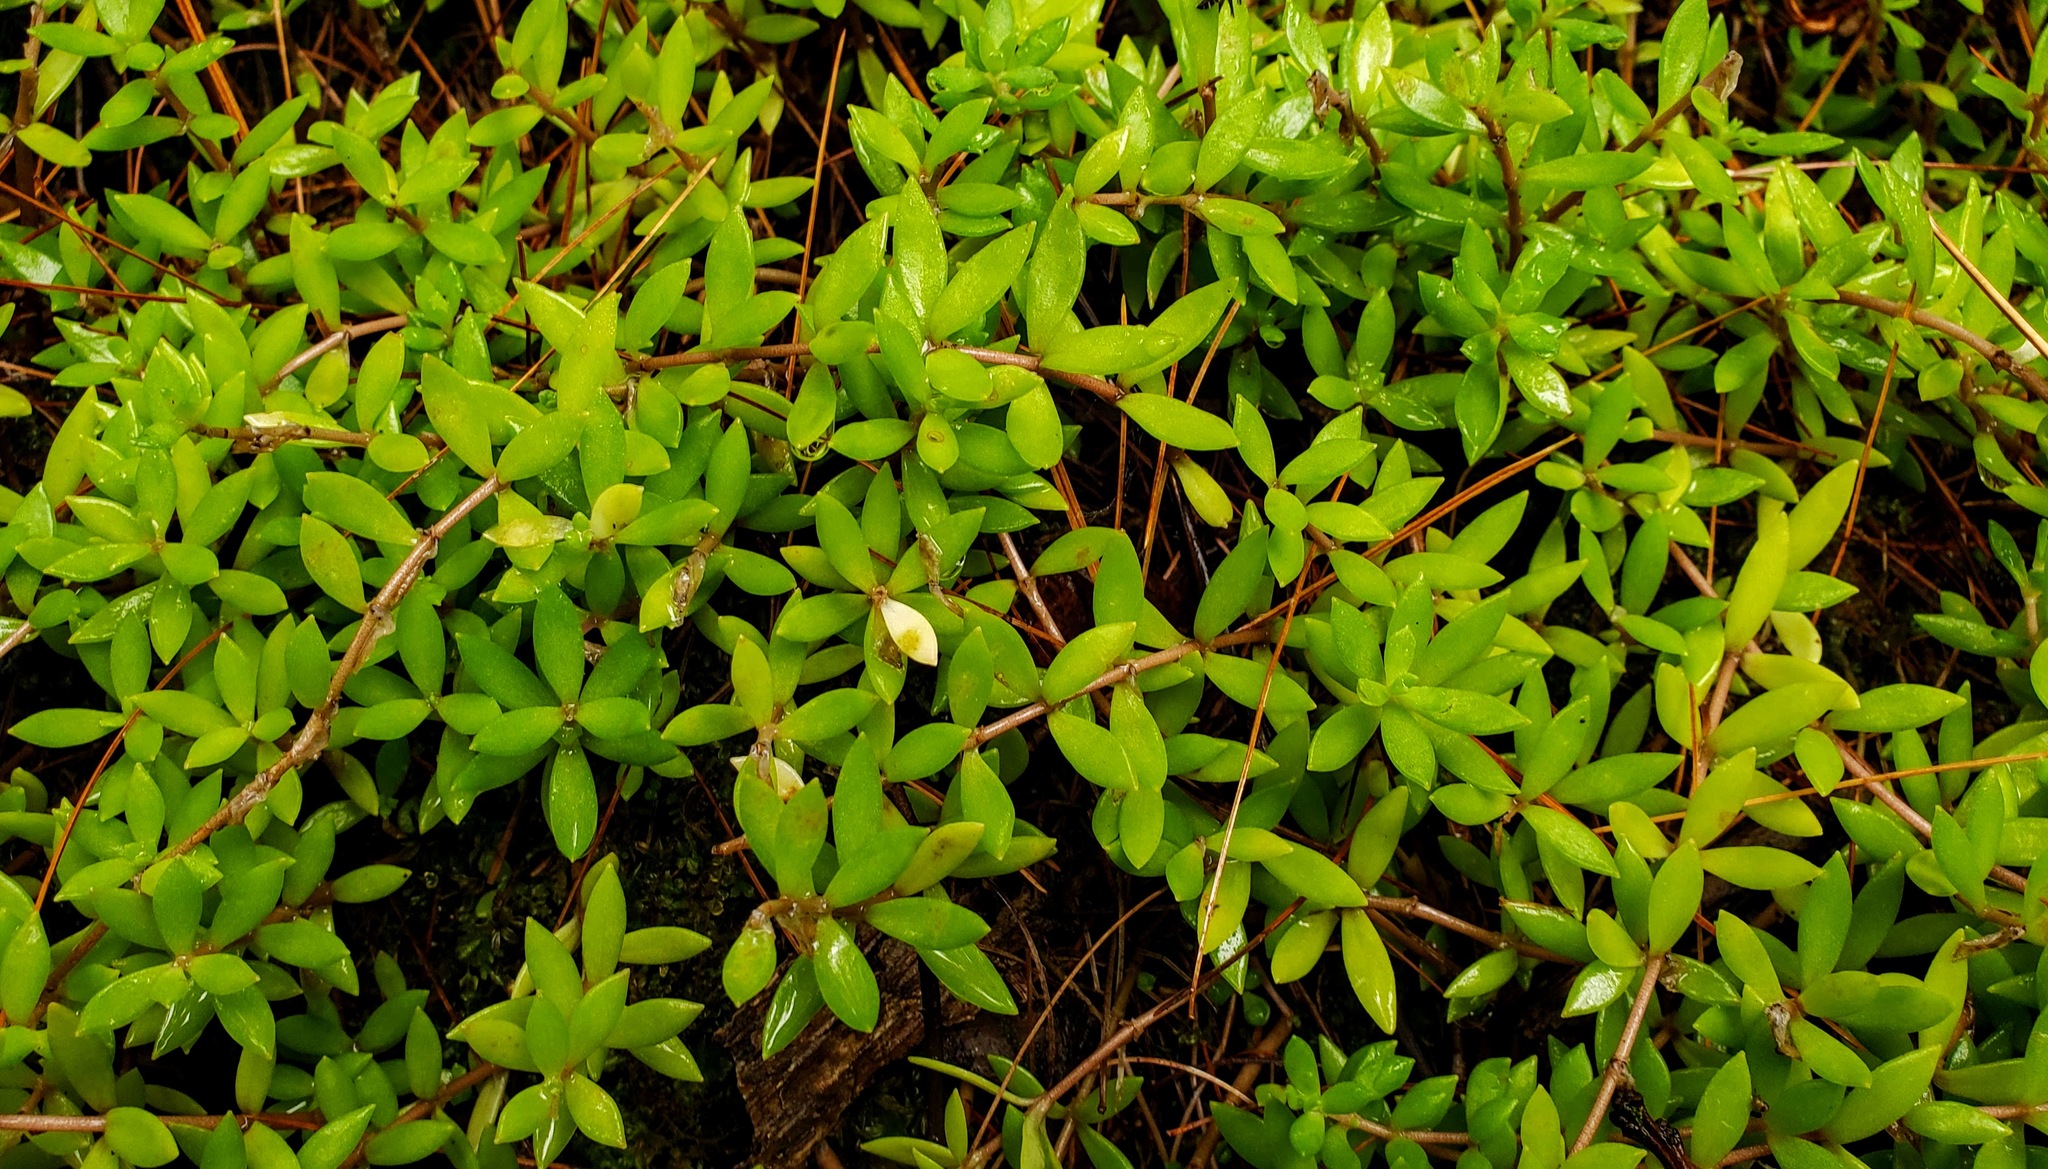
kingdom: Plantae
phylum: Tracheophyta
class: Magnoliopsida
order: Saxifragales
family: Crassulaceae
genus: Sedum
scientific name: Sedum sarmentosum
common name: Stringy stonecrop
